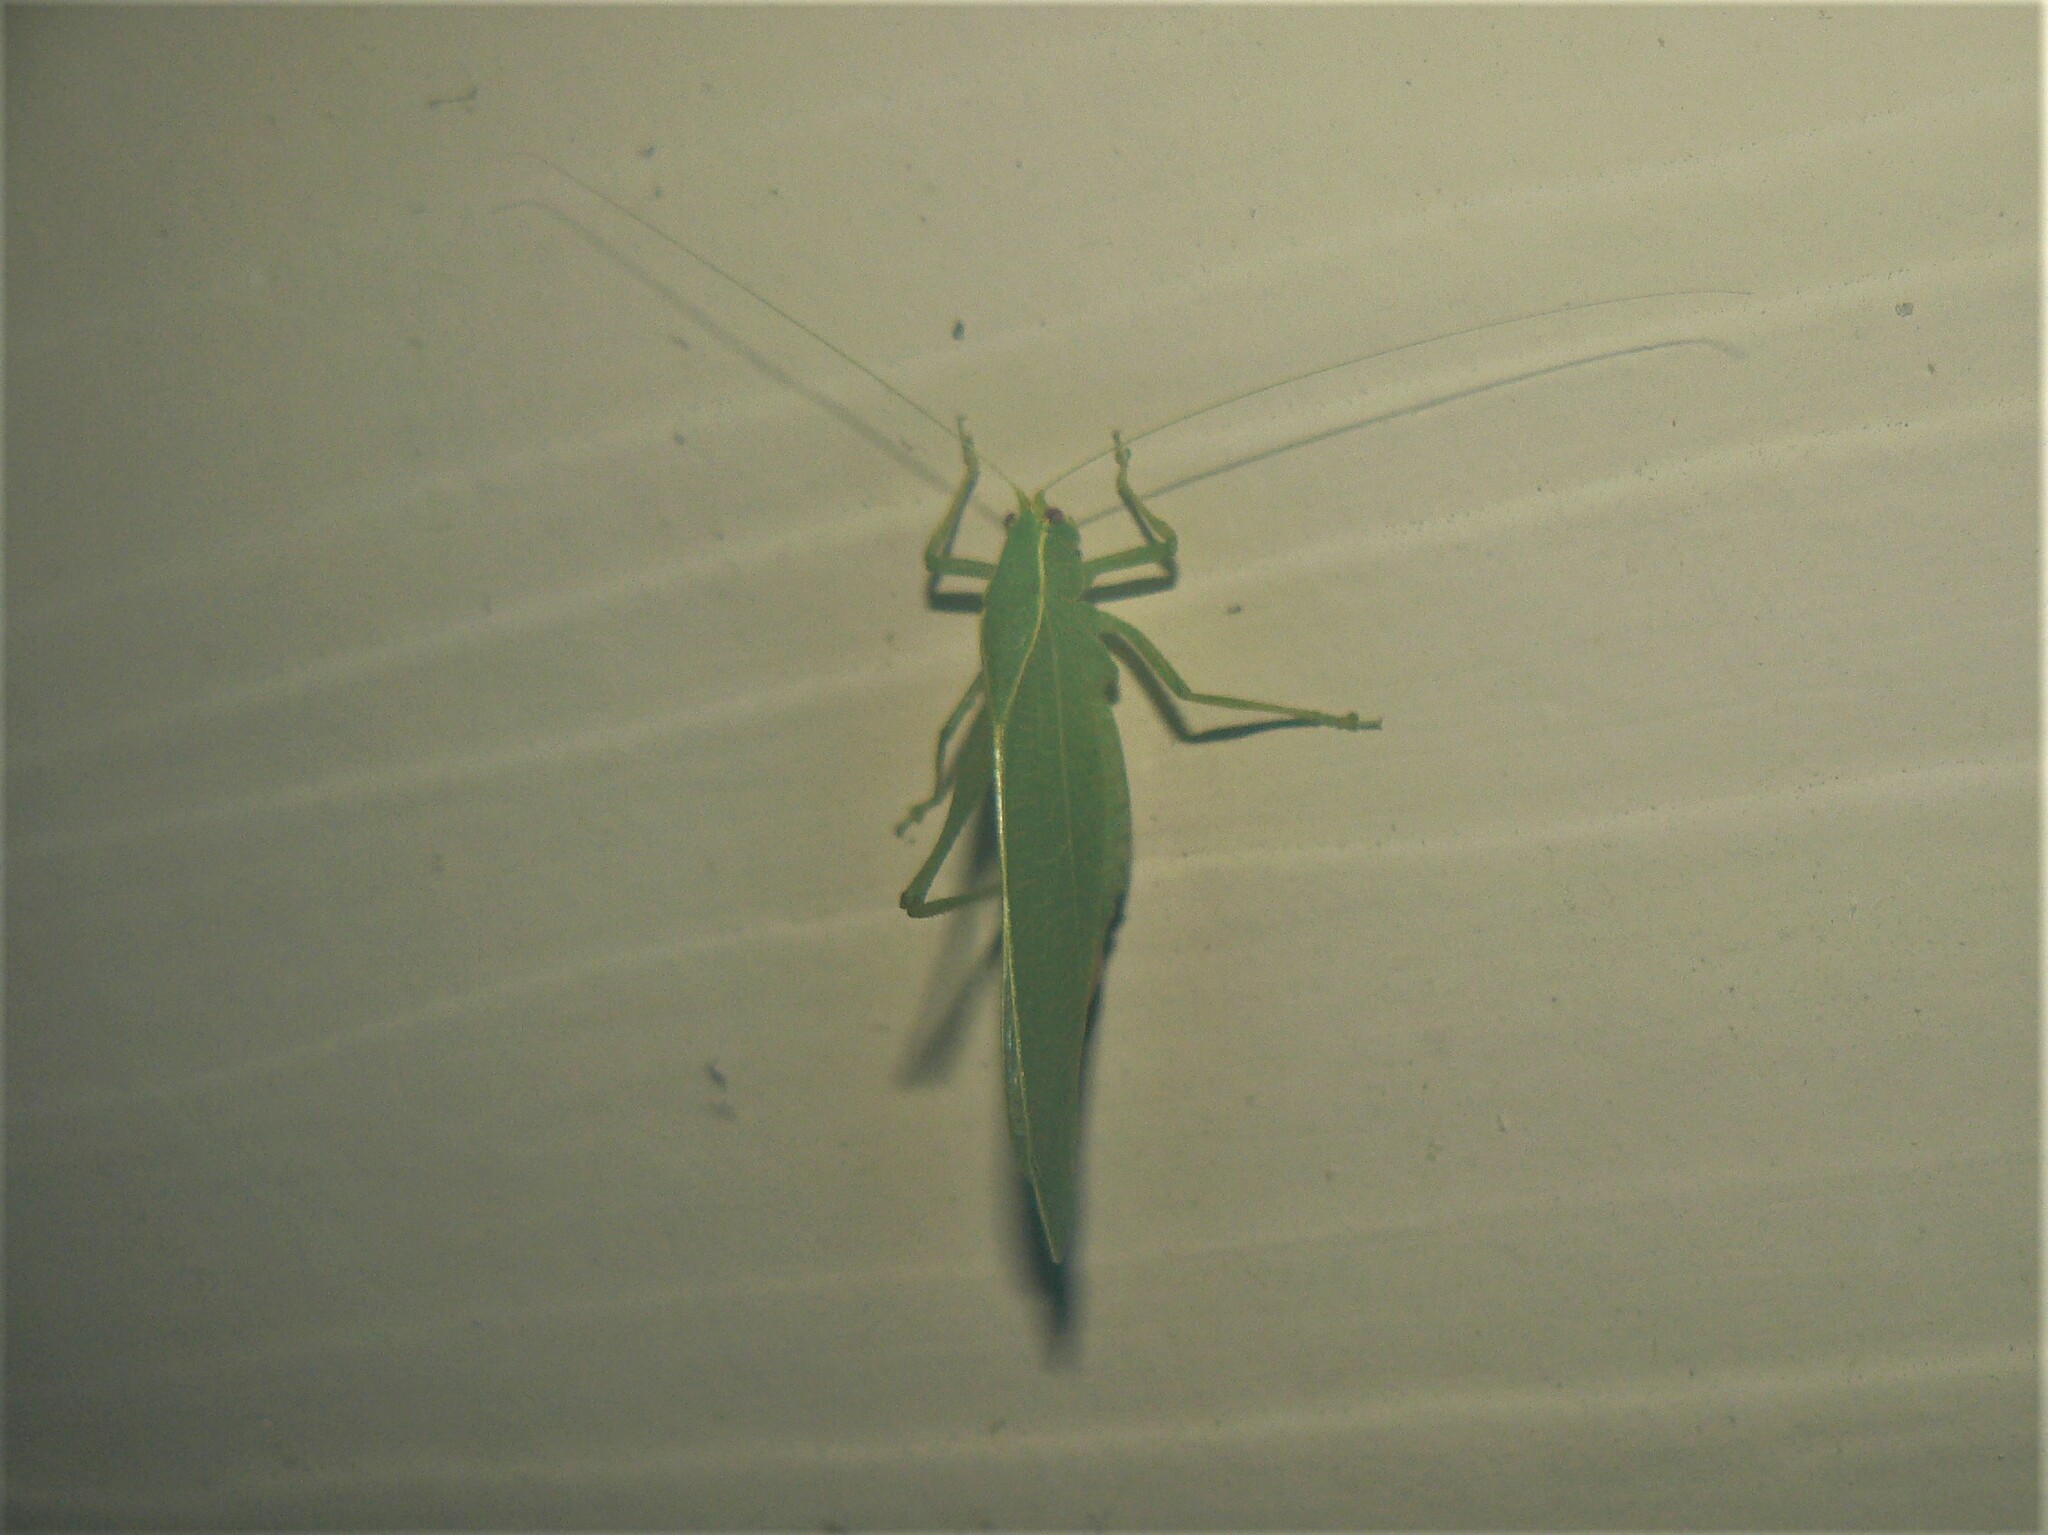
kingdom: Animalia
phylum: Arthropoda
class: Insecta
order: Orthoptera
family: Tettigoniidae
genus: Montezumina
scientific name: Montezumina modesta
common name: Modest katydid
